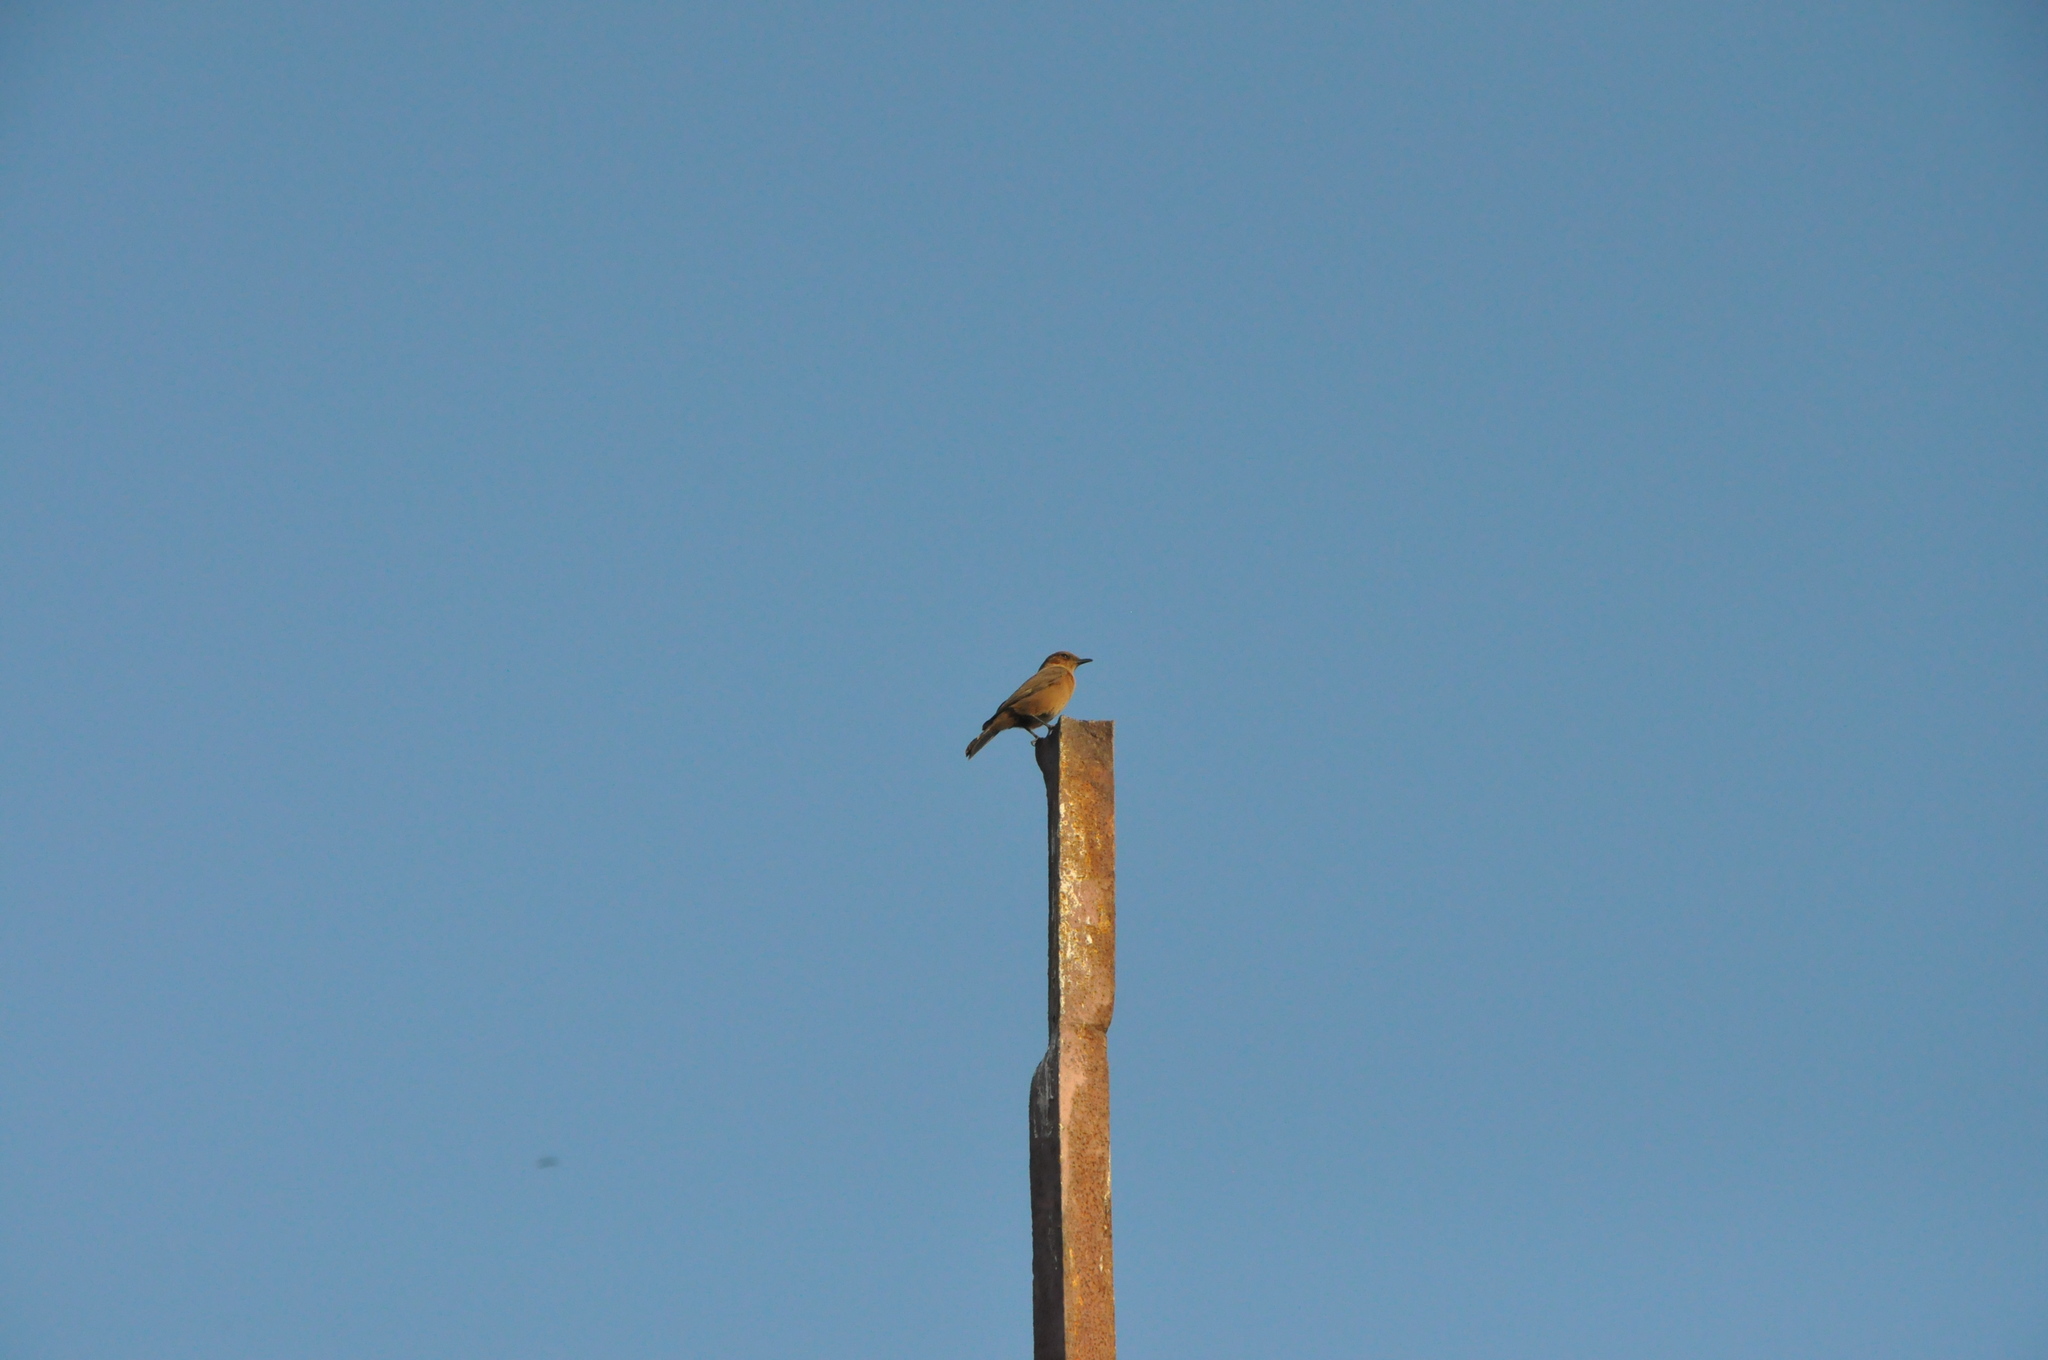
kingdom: Animalia
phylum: Chordata
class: Aves
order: Passeriformes
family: Muscicapidae
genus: Oenanthe
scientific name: Oenanthe fusca
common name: Brown rock chat
